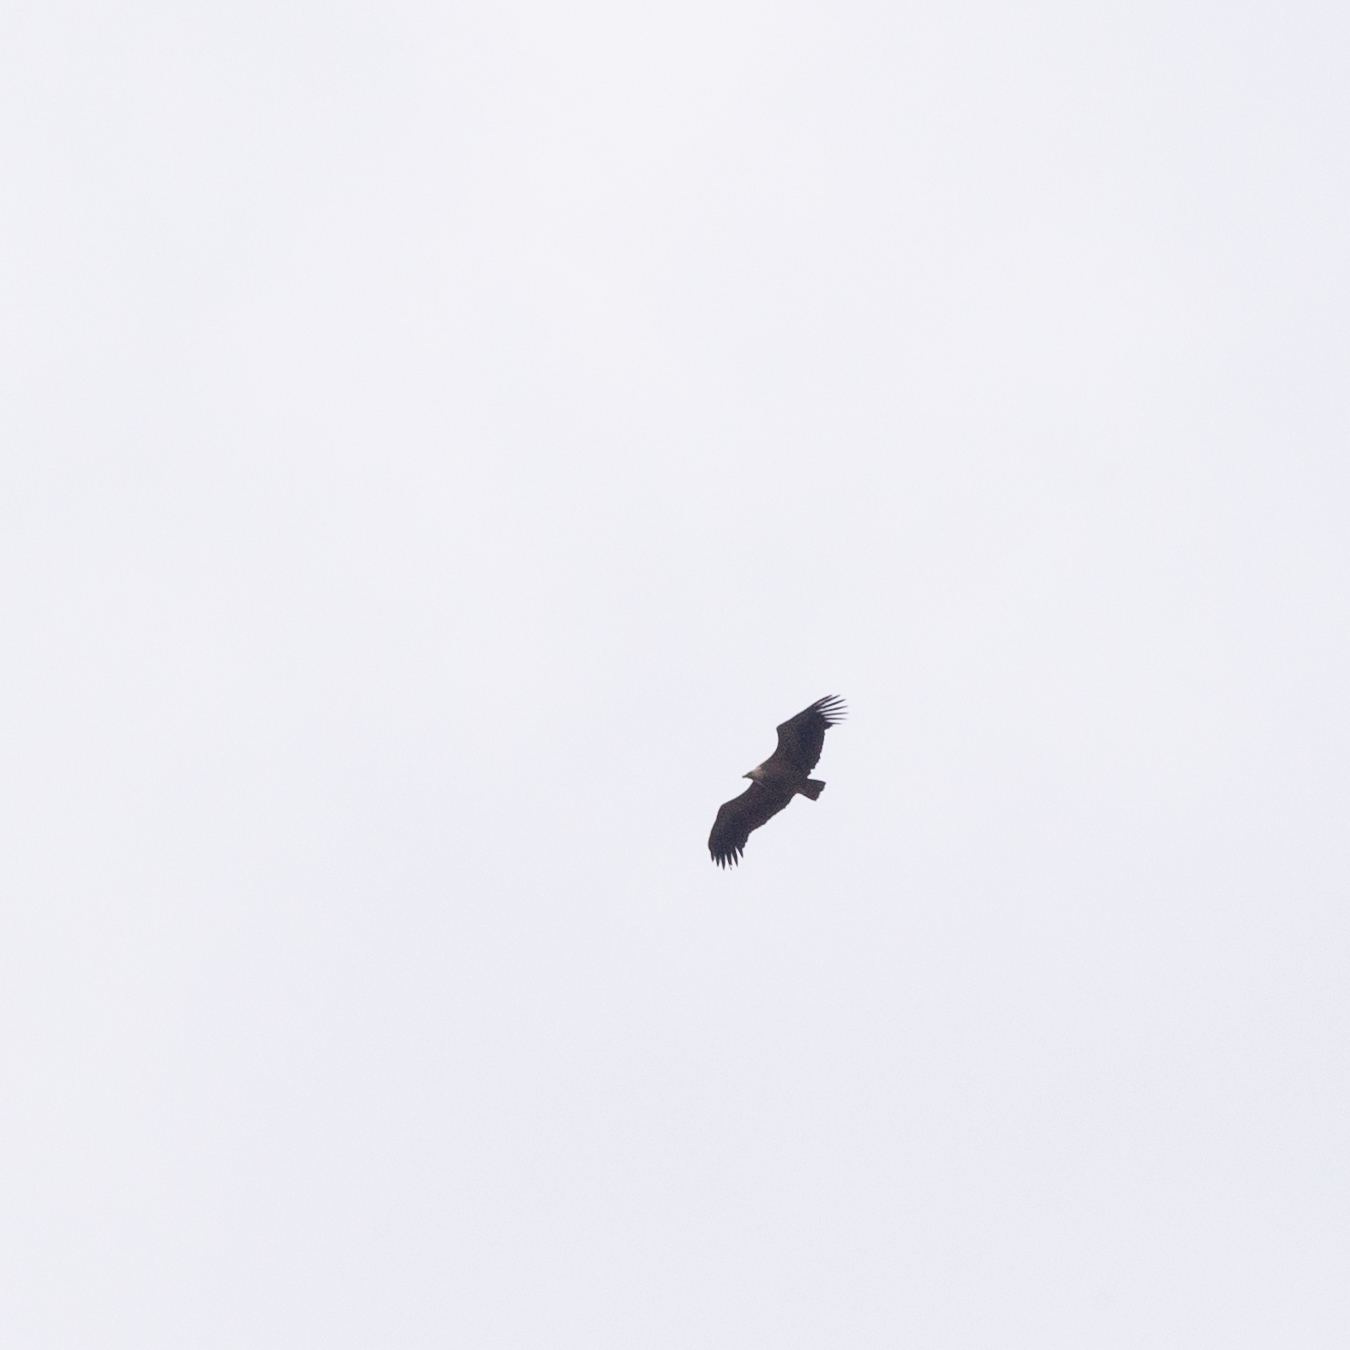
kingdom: Animalia
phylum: Chordata
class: Aves
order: Accipitriformes
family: Accipitridae
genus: Gyps
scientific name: Gyps fulvus
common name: Griffon vulture
